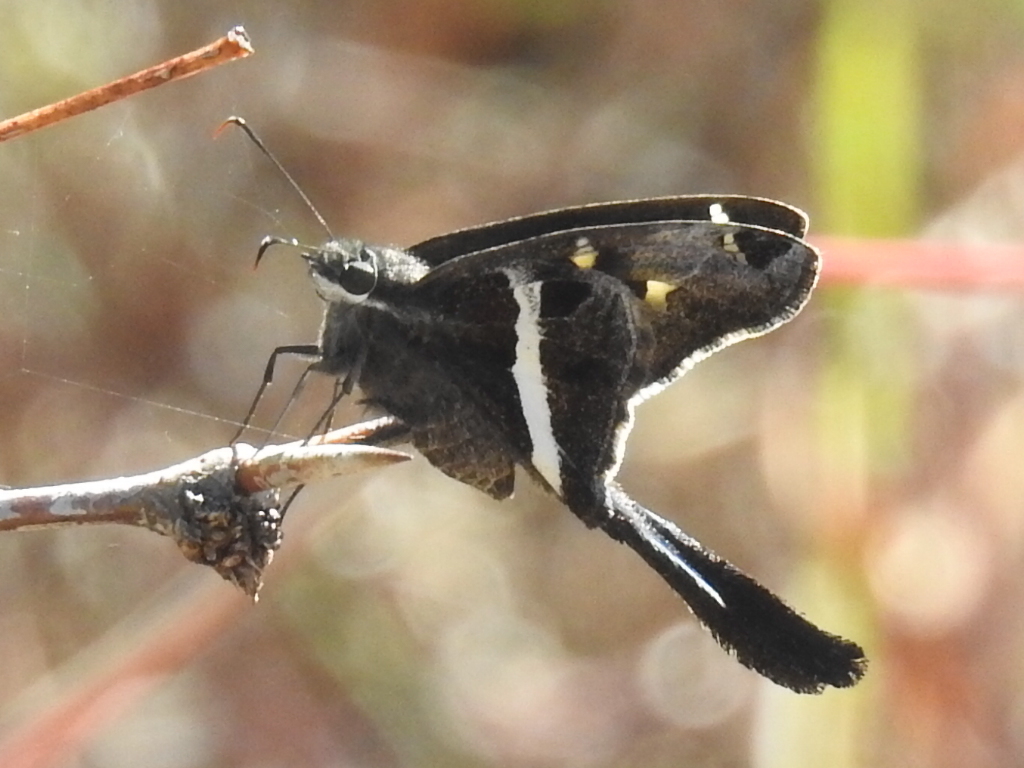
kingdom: Animalia
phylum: Arthropoda
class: Insecta
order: Lepidoptera
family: Hesperiidae
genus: Chioides
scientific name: Chioides catillus
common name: Silverbanded skipper
